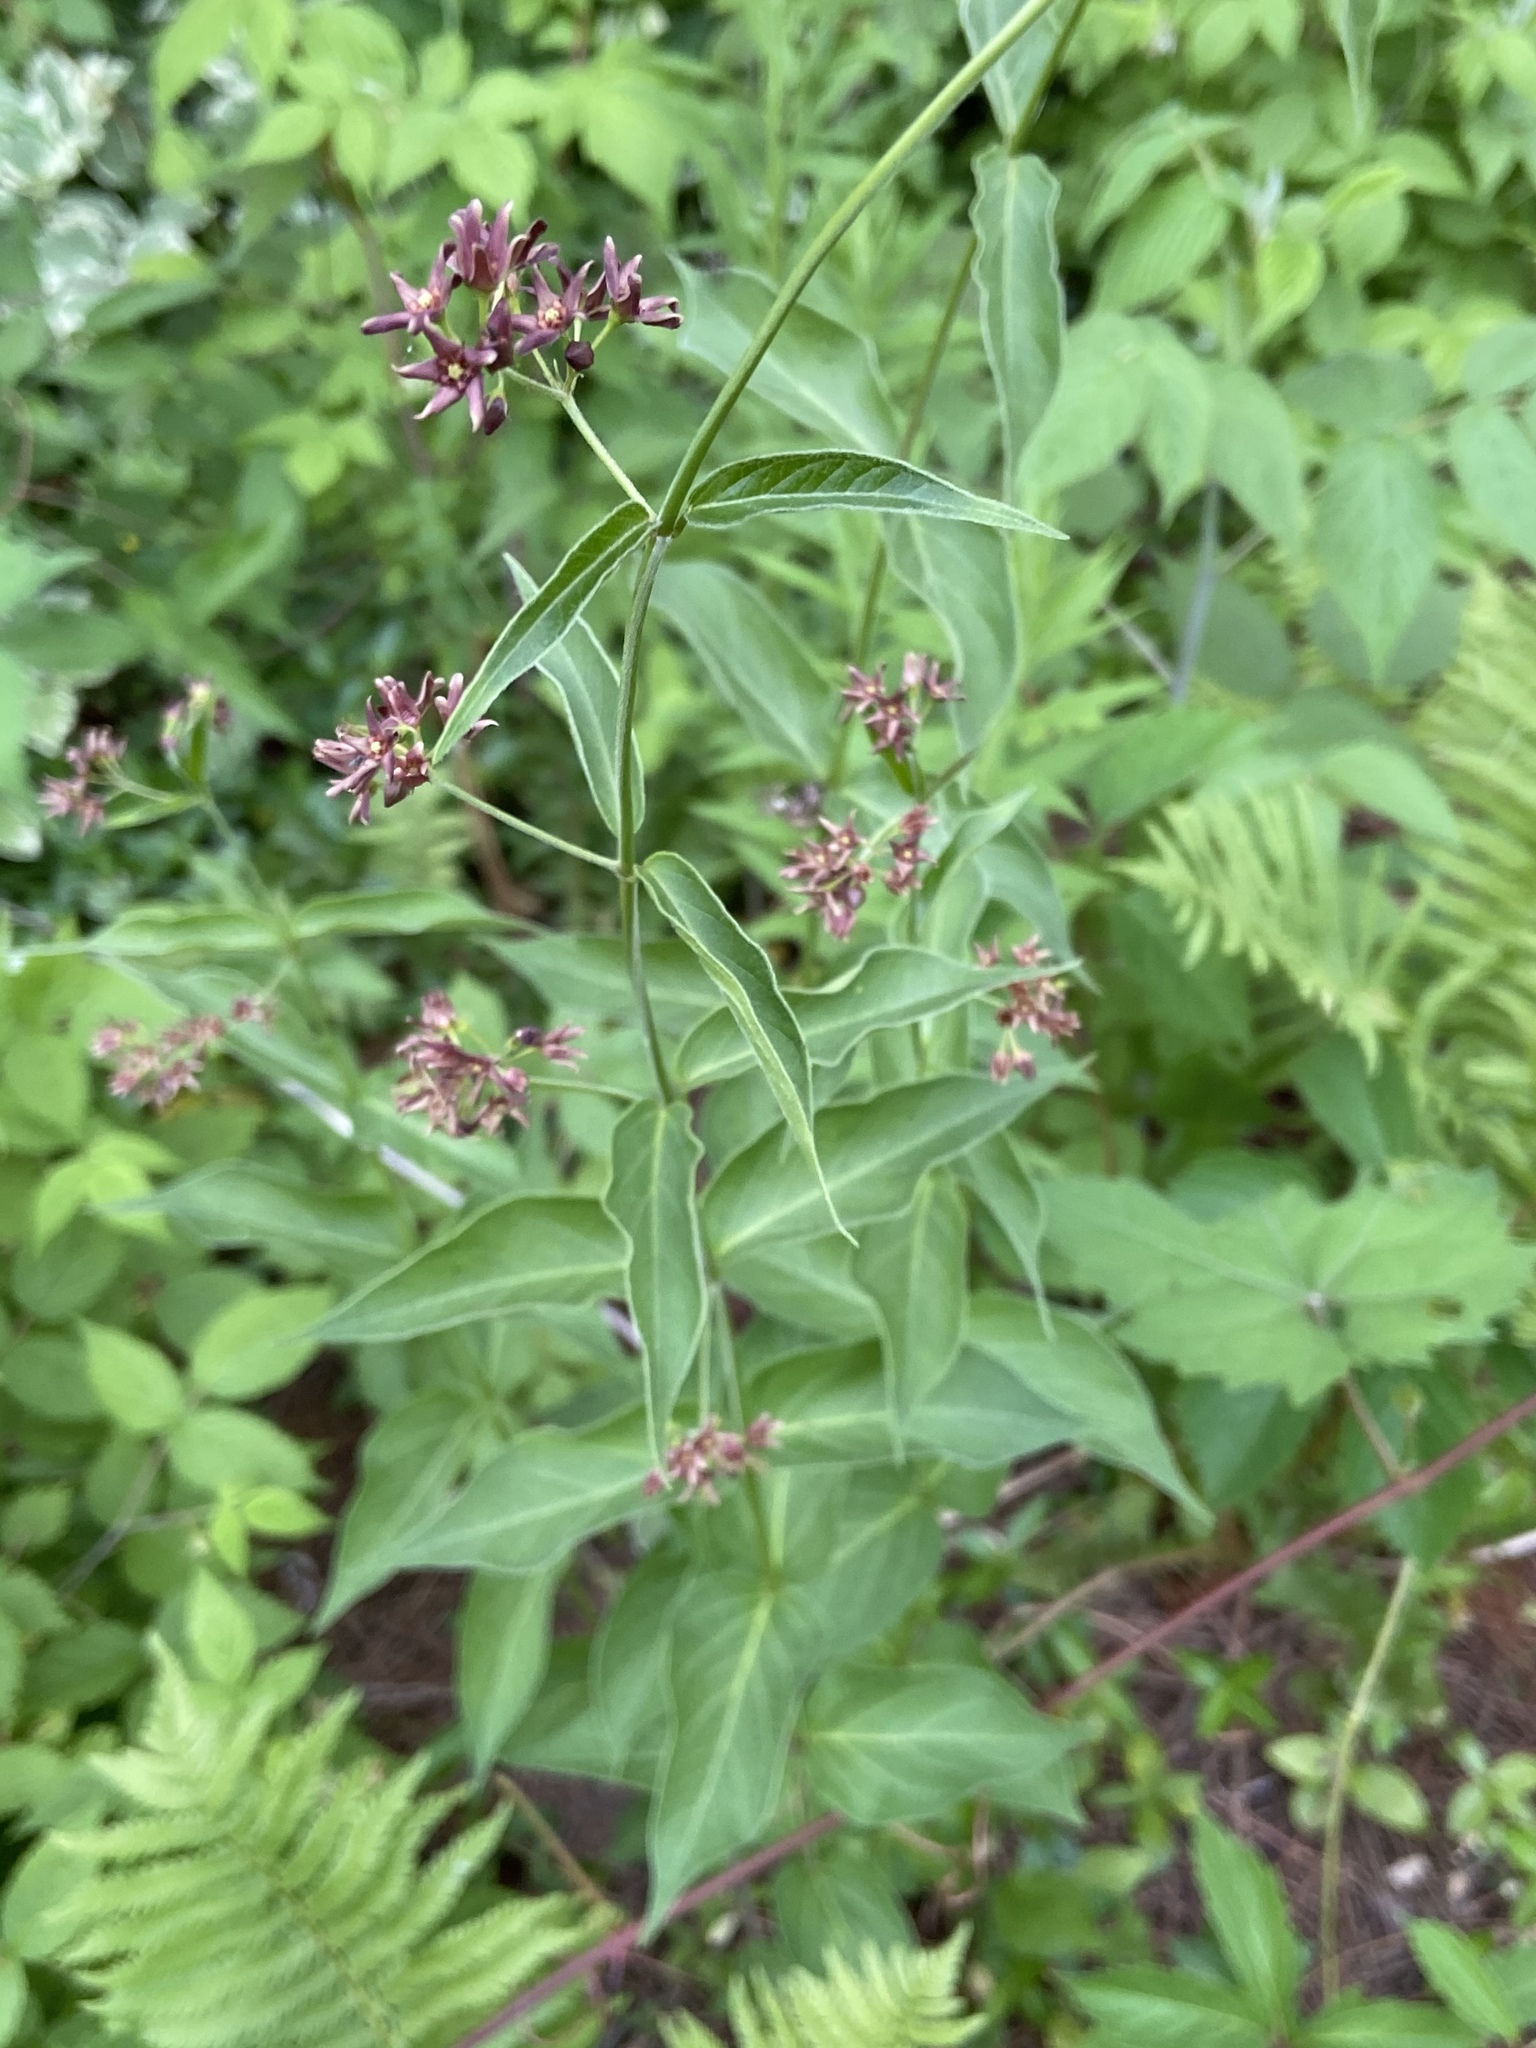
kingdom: Plantae
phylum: Tracheophyta
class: Magnoliopsida
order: Gentianales
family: Apocynaceae
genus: Vincetoxicum
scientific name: Vincetoxicum rossicum
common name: Dog-strangling vine
